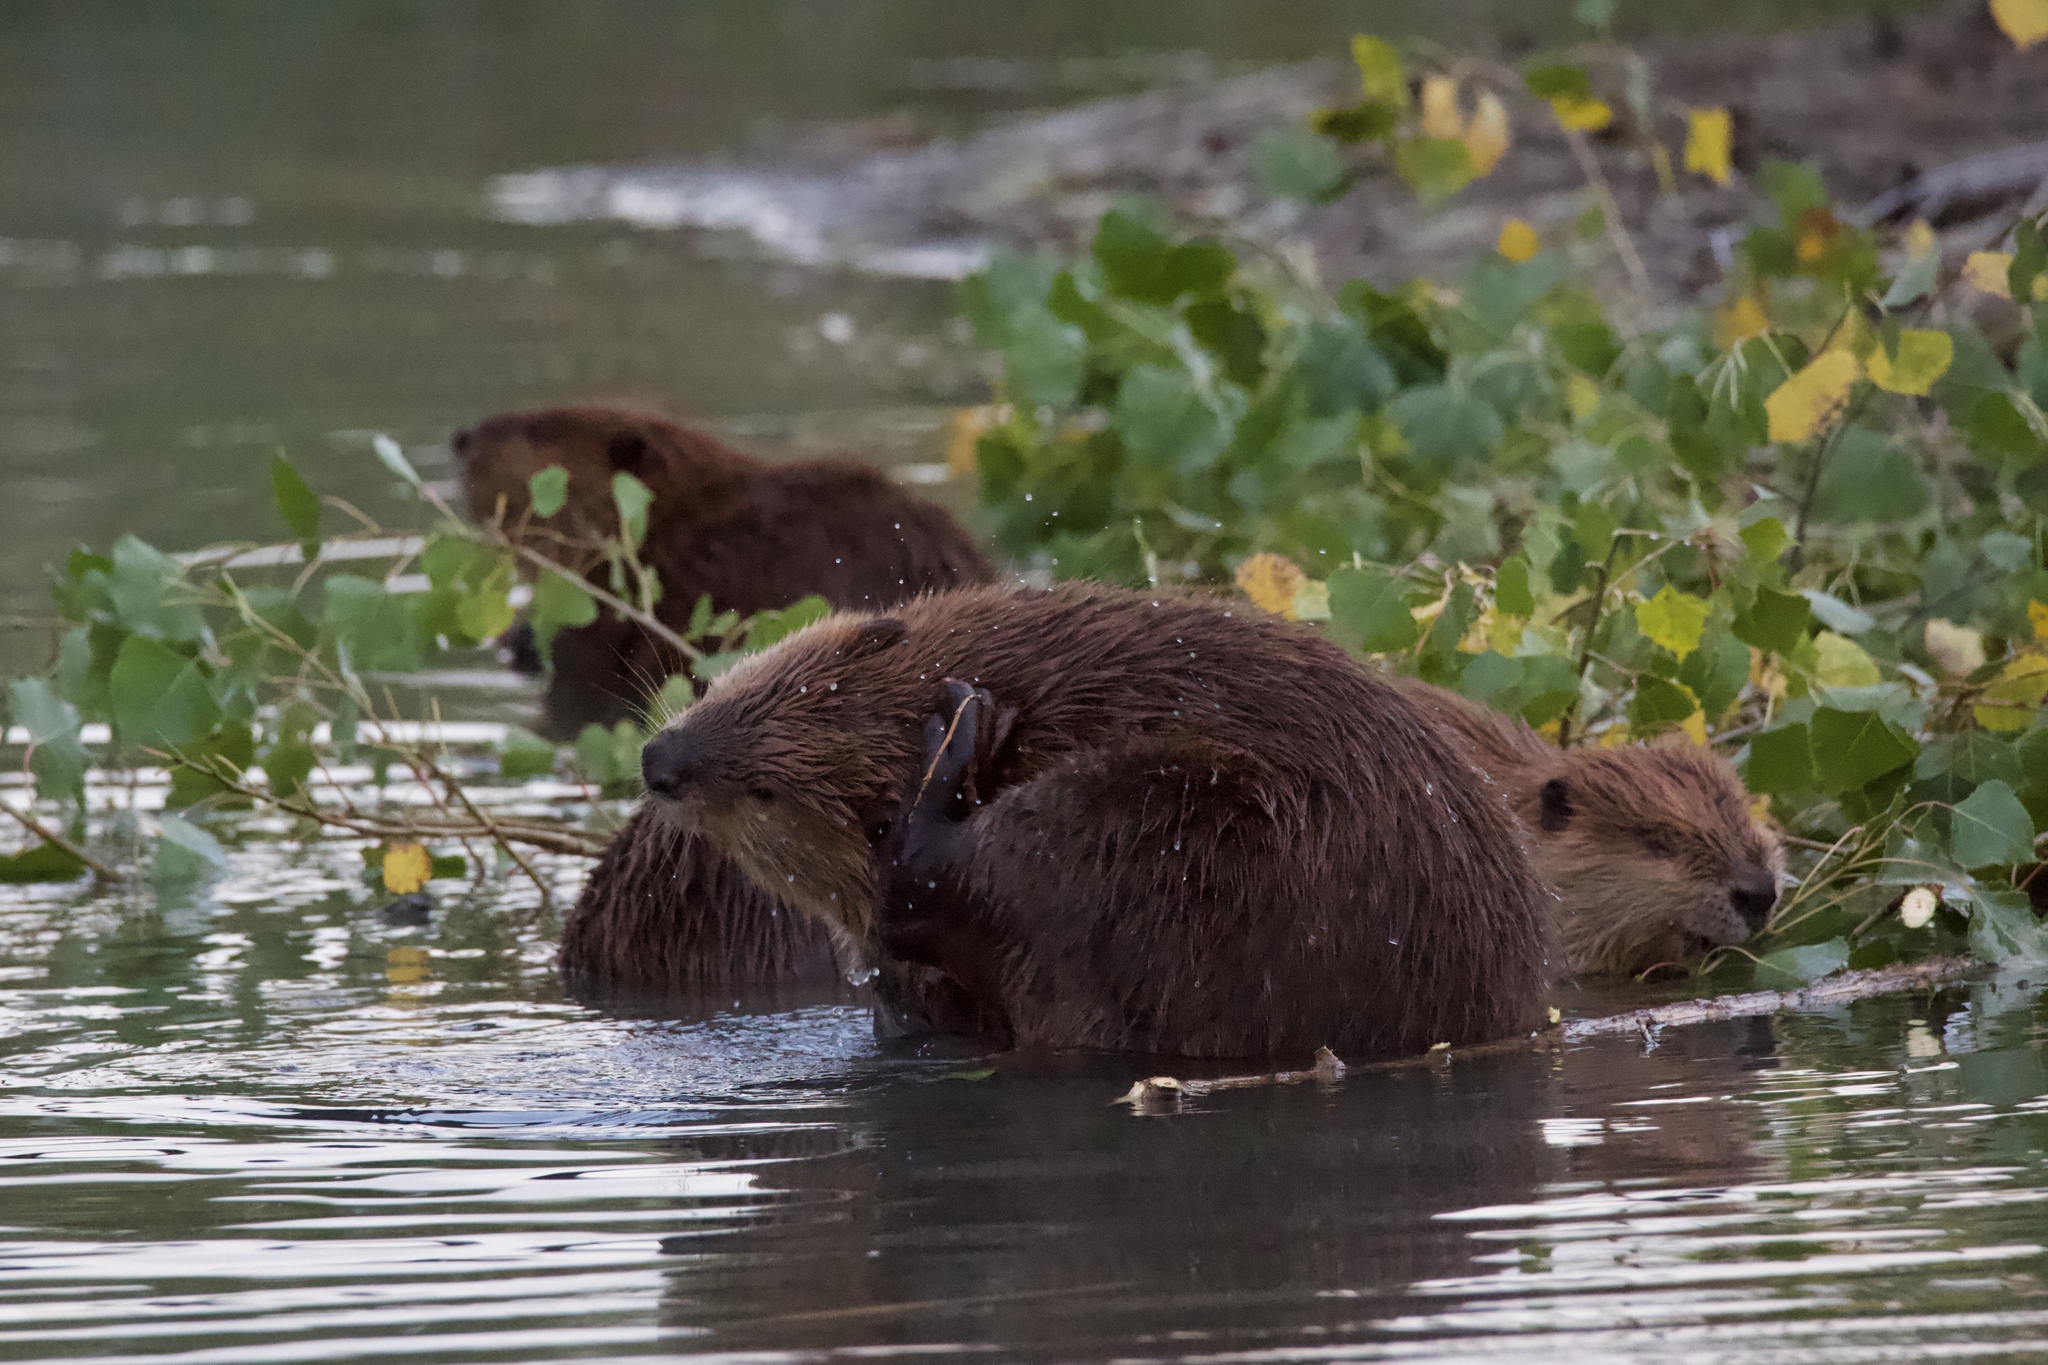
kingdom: Animalia
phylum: Chordata
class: Mammalia
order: Rodentia
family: Castoridae
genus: Castor
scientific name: Castor canadensis
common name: American beaver
